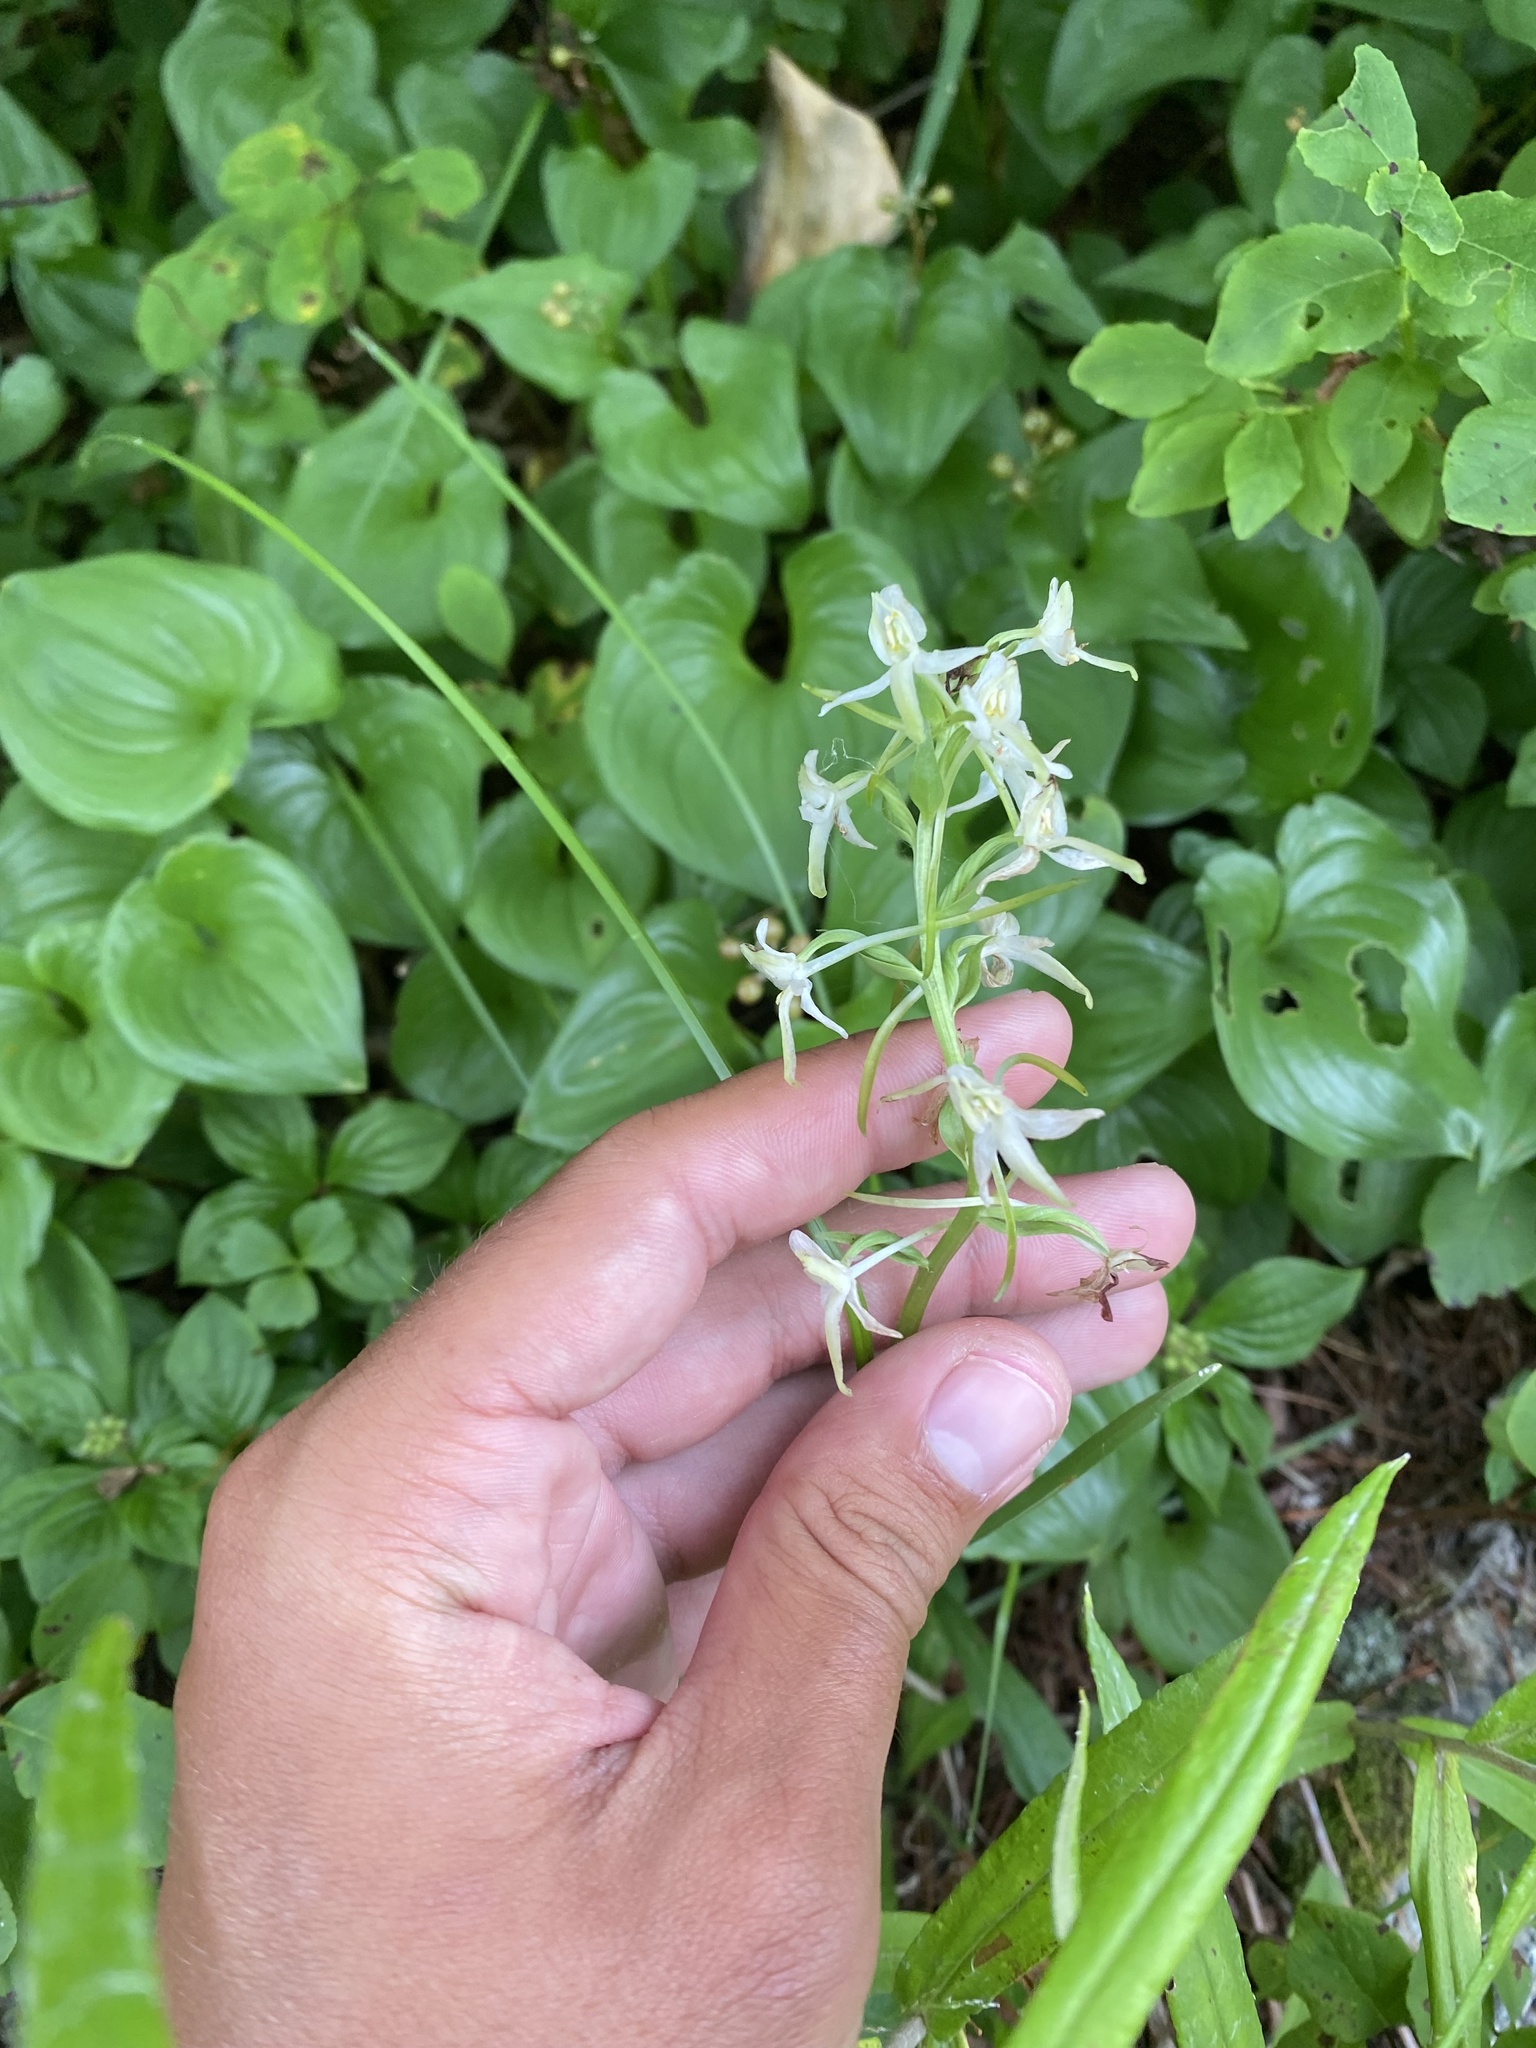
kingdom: Plantae
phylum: Tracheophyta
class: Liliopsida
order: Asparagales
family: Orchidaceae
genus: Platanthera
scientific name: Platanthera metabifolia
